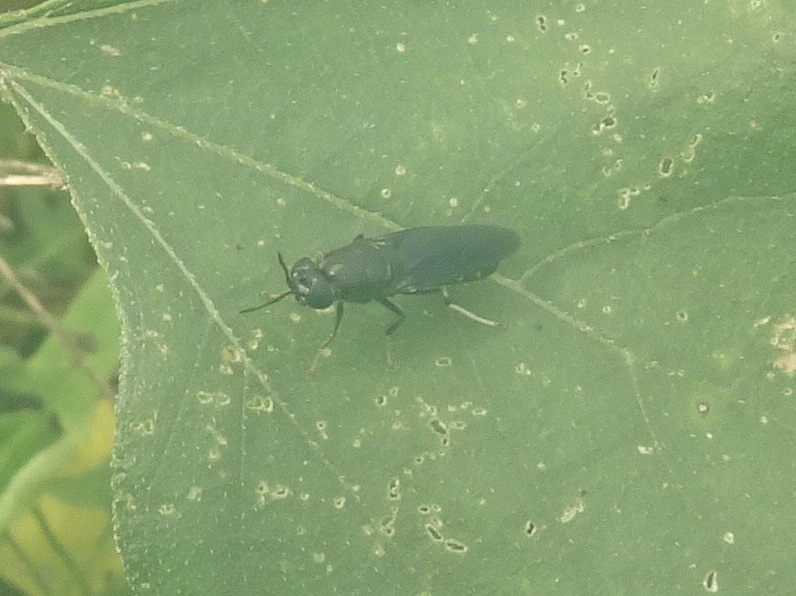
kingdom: Animalia
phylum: Arthropoda
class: Insecta
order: Diptera
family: Stratiomyidae
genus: Hermetia
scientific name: Hermetia illucens
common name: Black soldier fly
